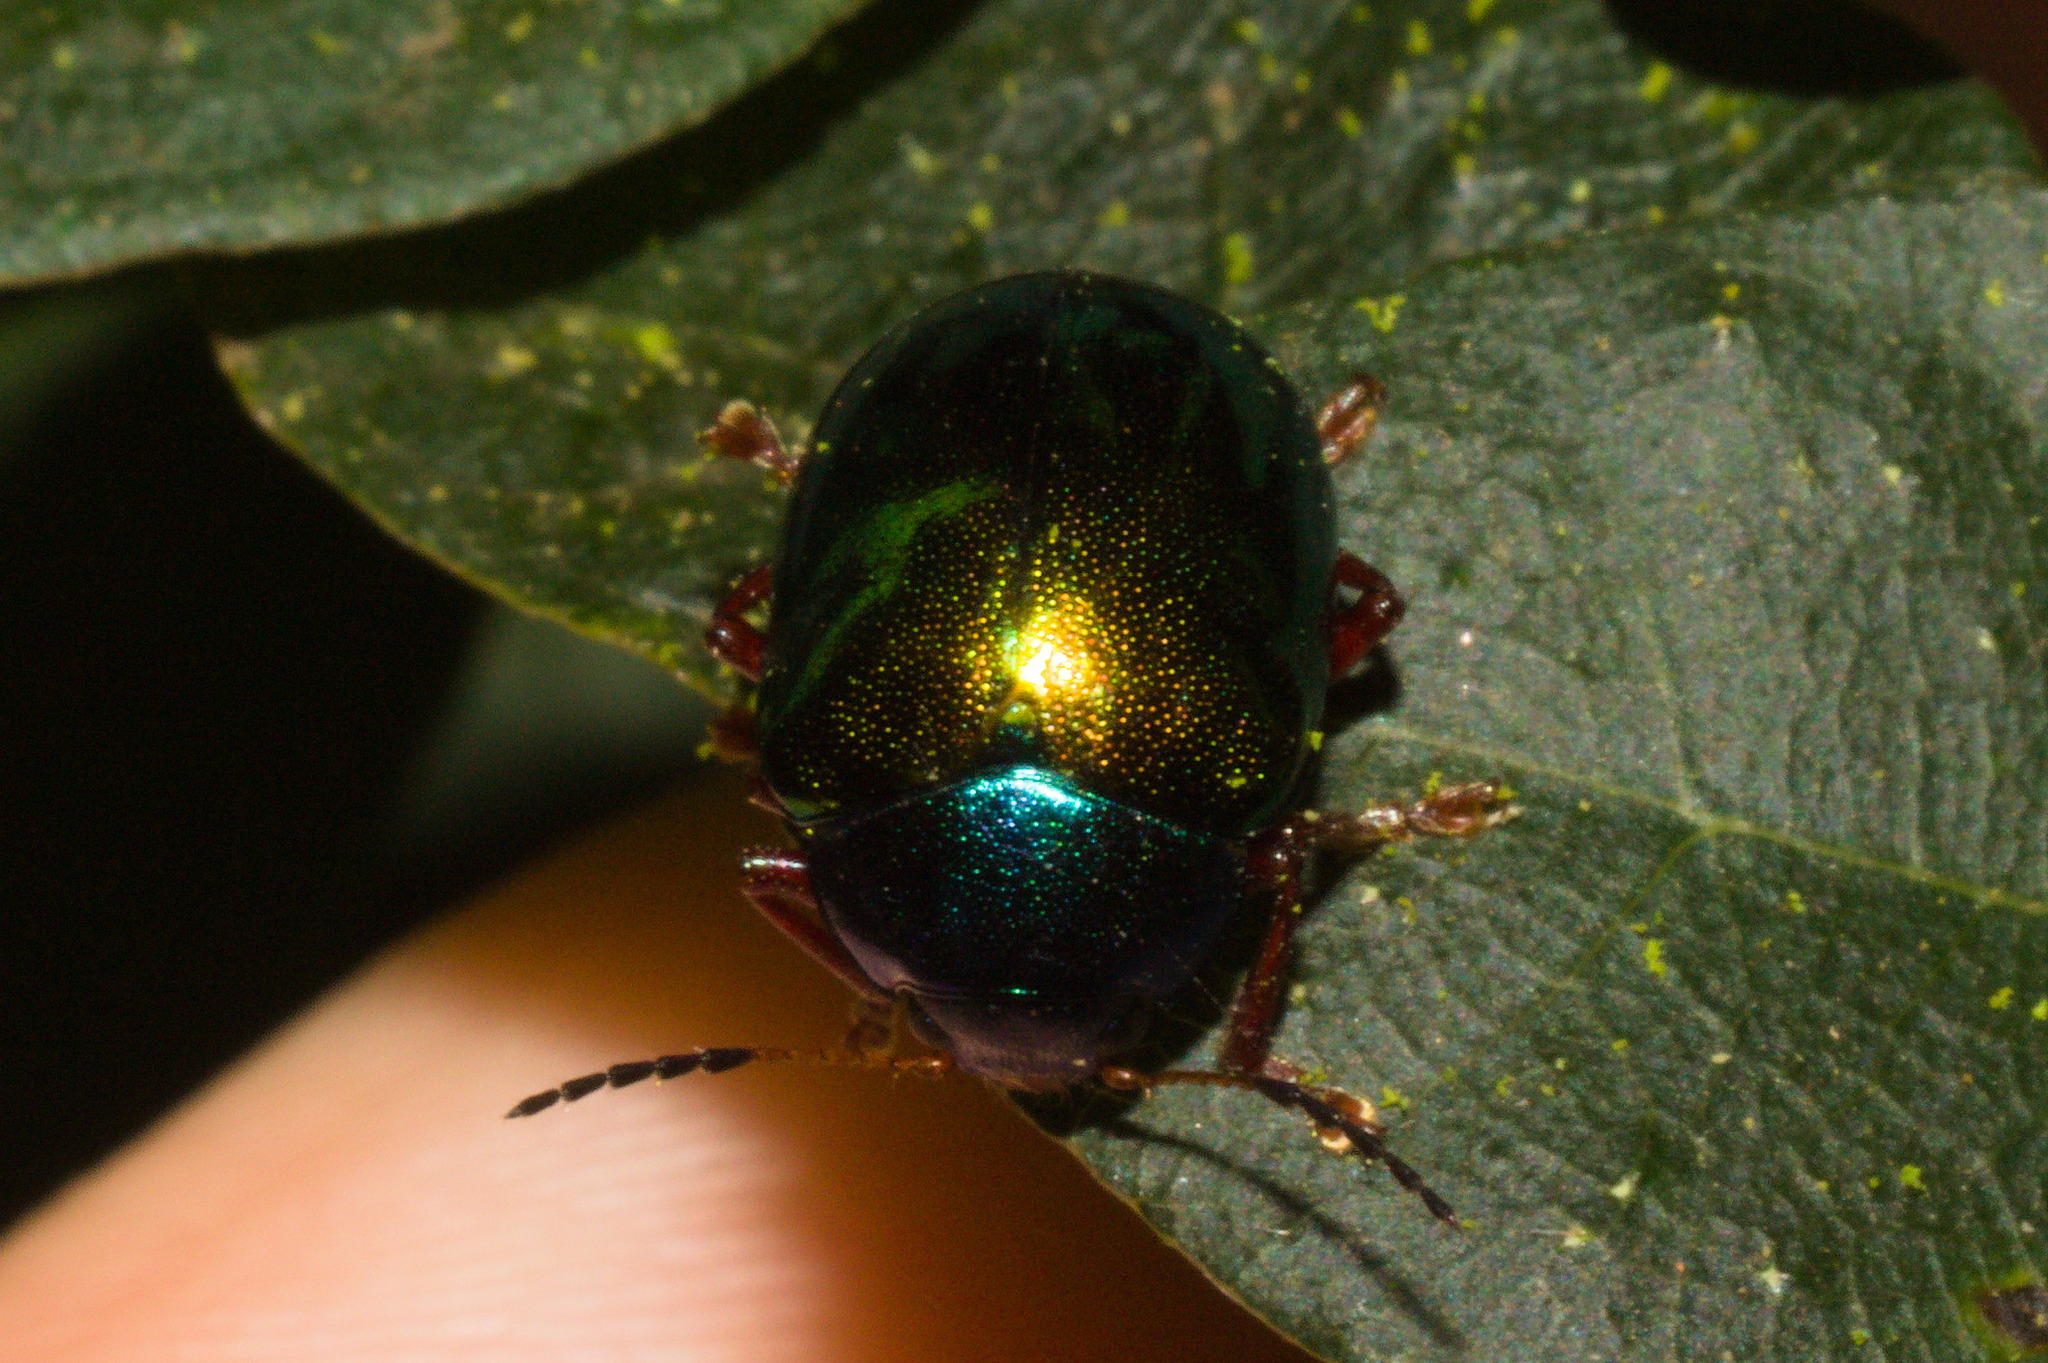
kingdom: Animalia
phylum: Arthropoda
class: Insecta
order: Coleoptera
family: Chrysomelidae
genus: Iphimeis
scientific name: Iphimeis
